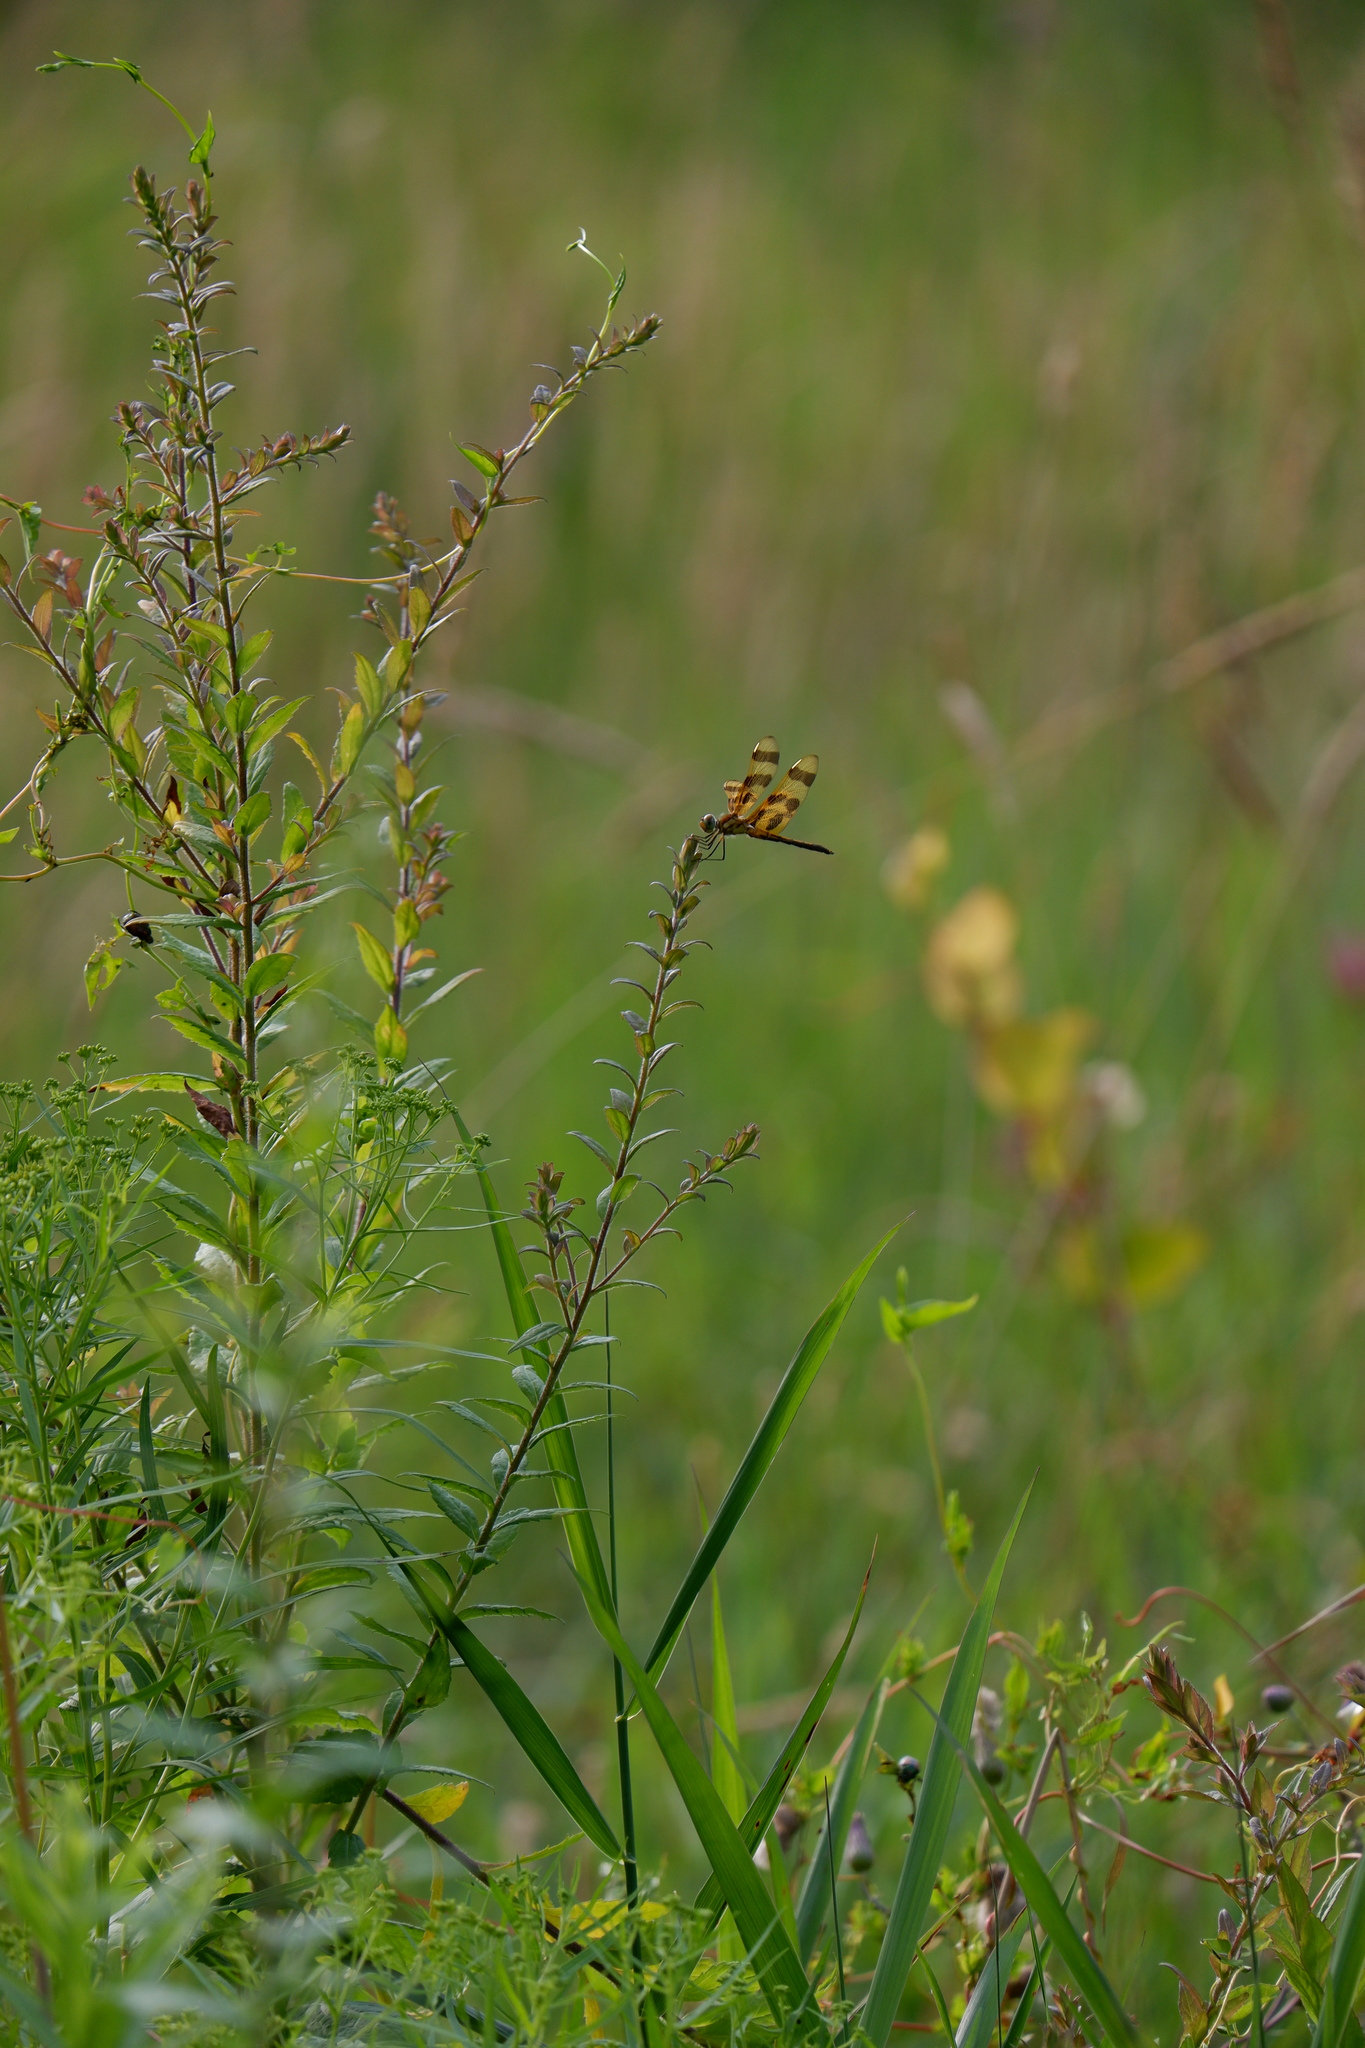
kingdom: Animalia
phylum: Arthropoda
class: Insecta
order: Odonata
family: Libellulidae
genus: Celithemis
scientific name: Celithemis eponina
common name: Halloween pennant
